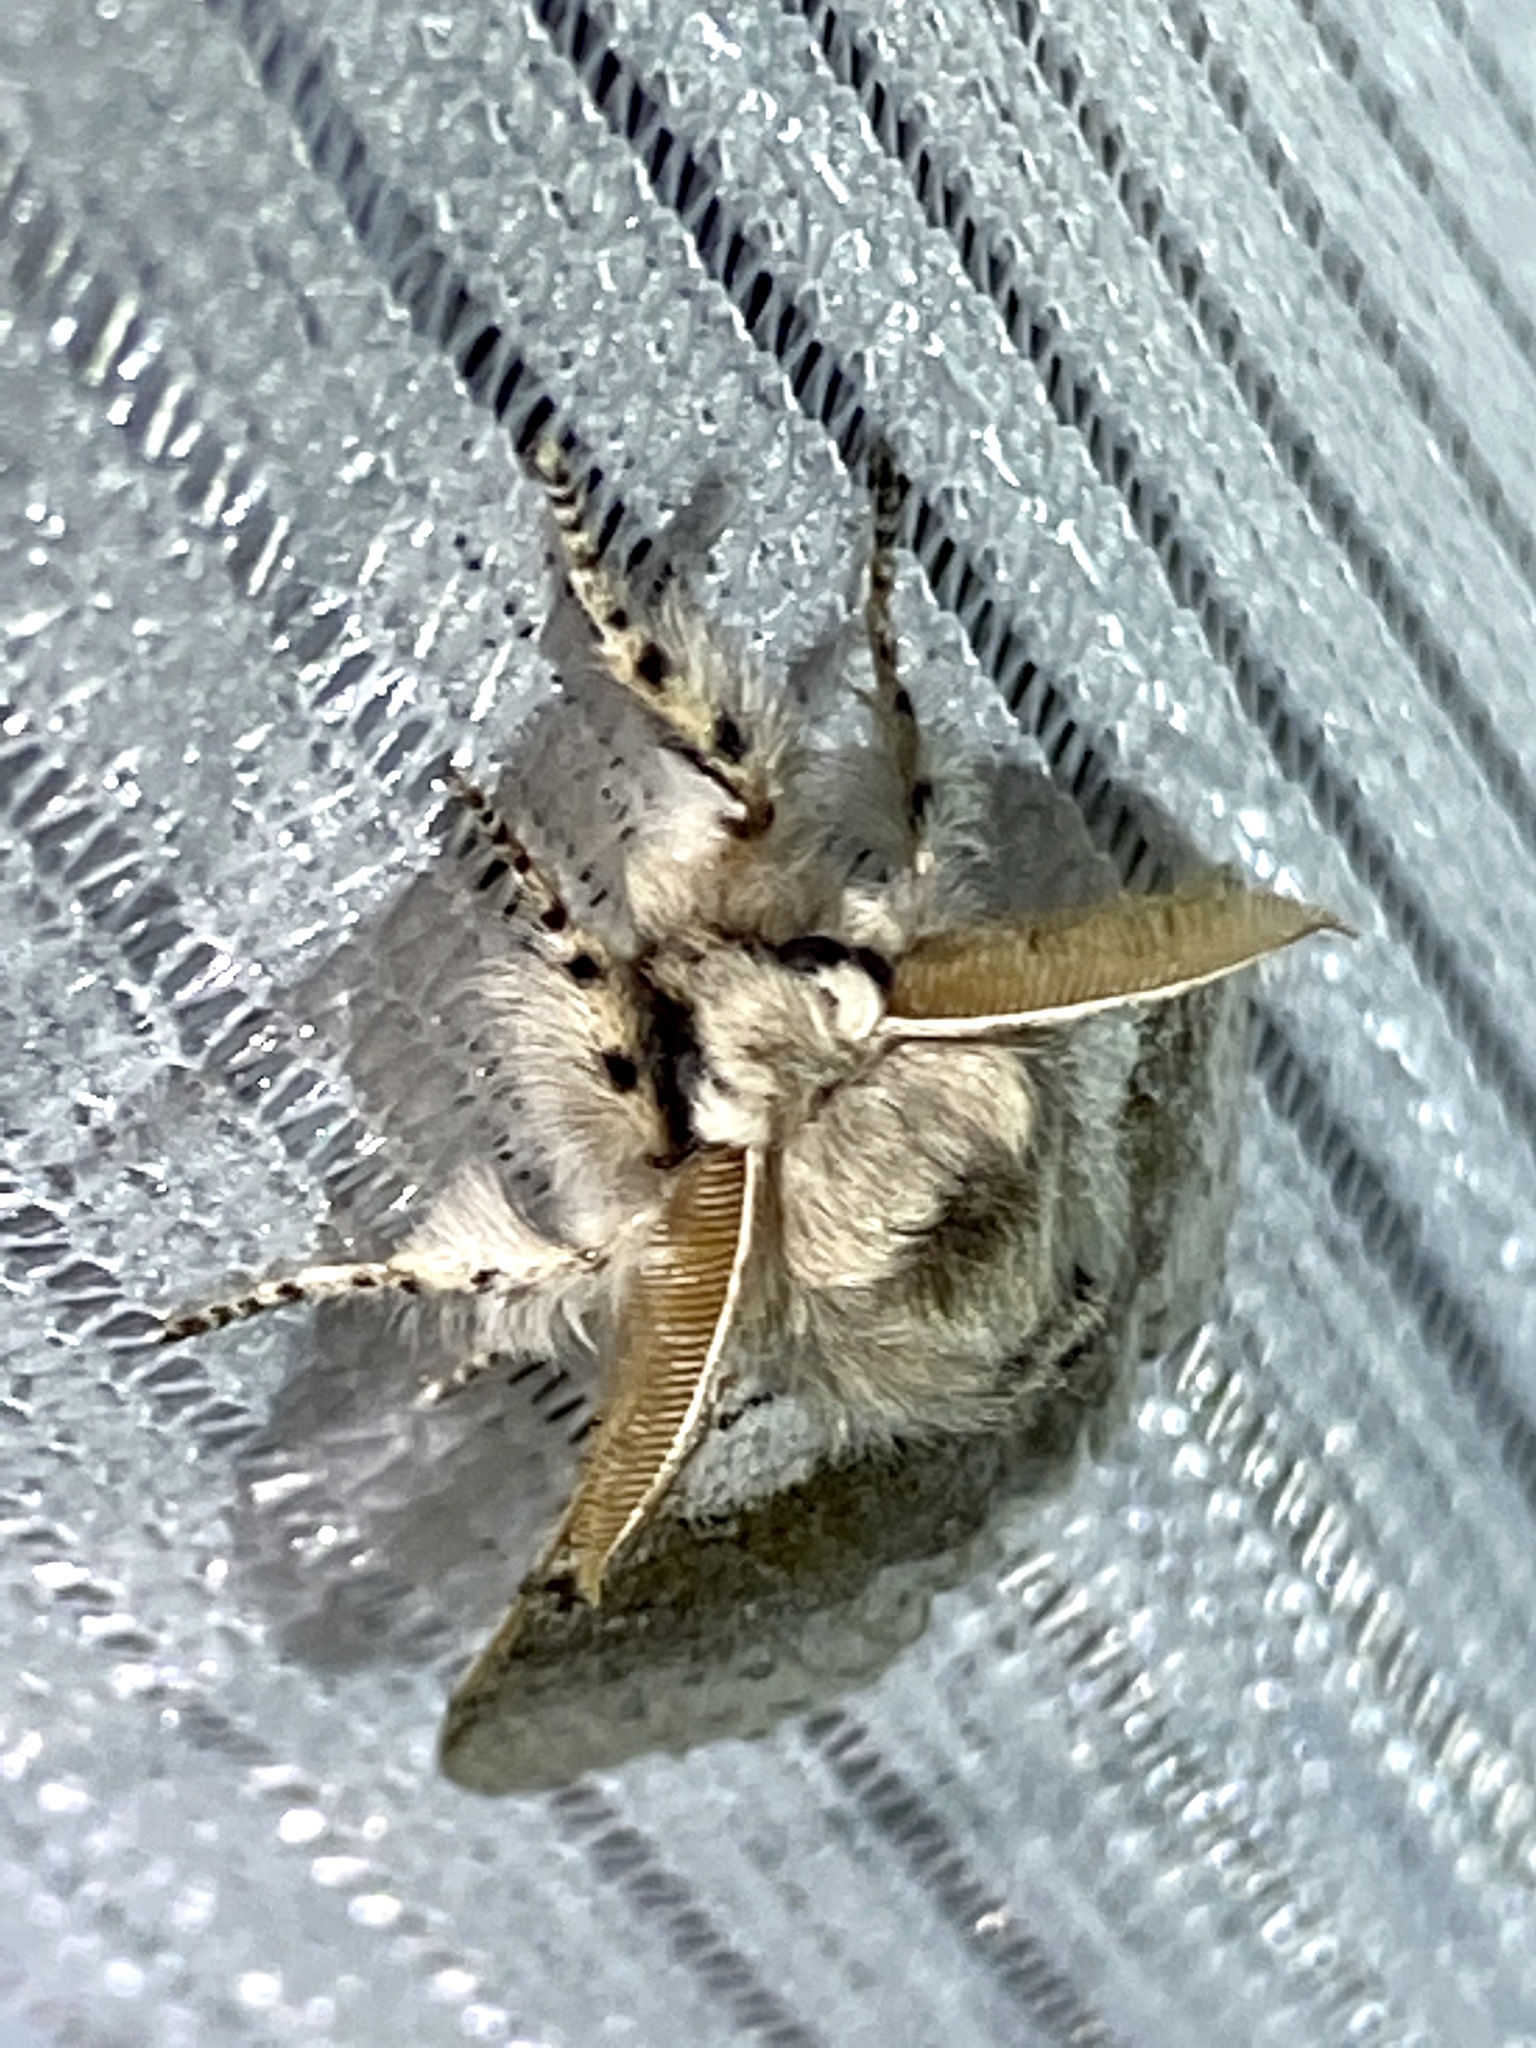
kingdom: Animalia
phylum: Arthropoda
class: Insecta
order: Lepidoptera
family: Erebidae
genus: Calliteara
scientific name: Calliteara
